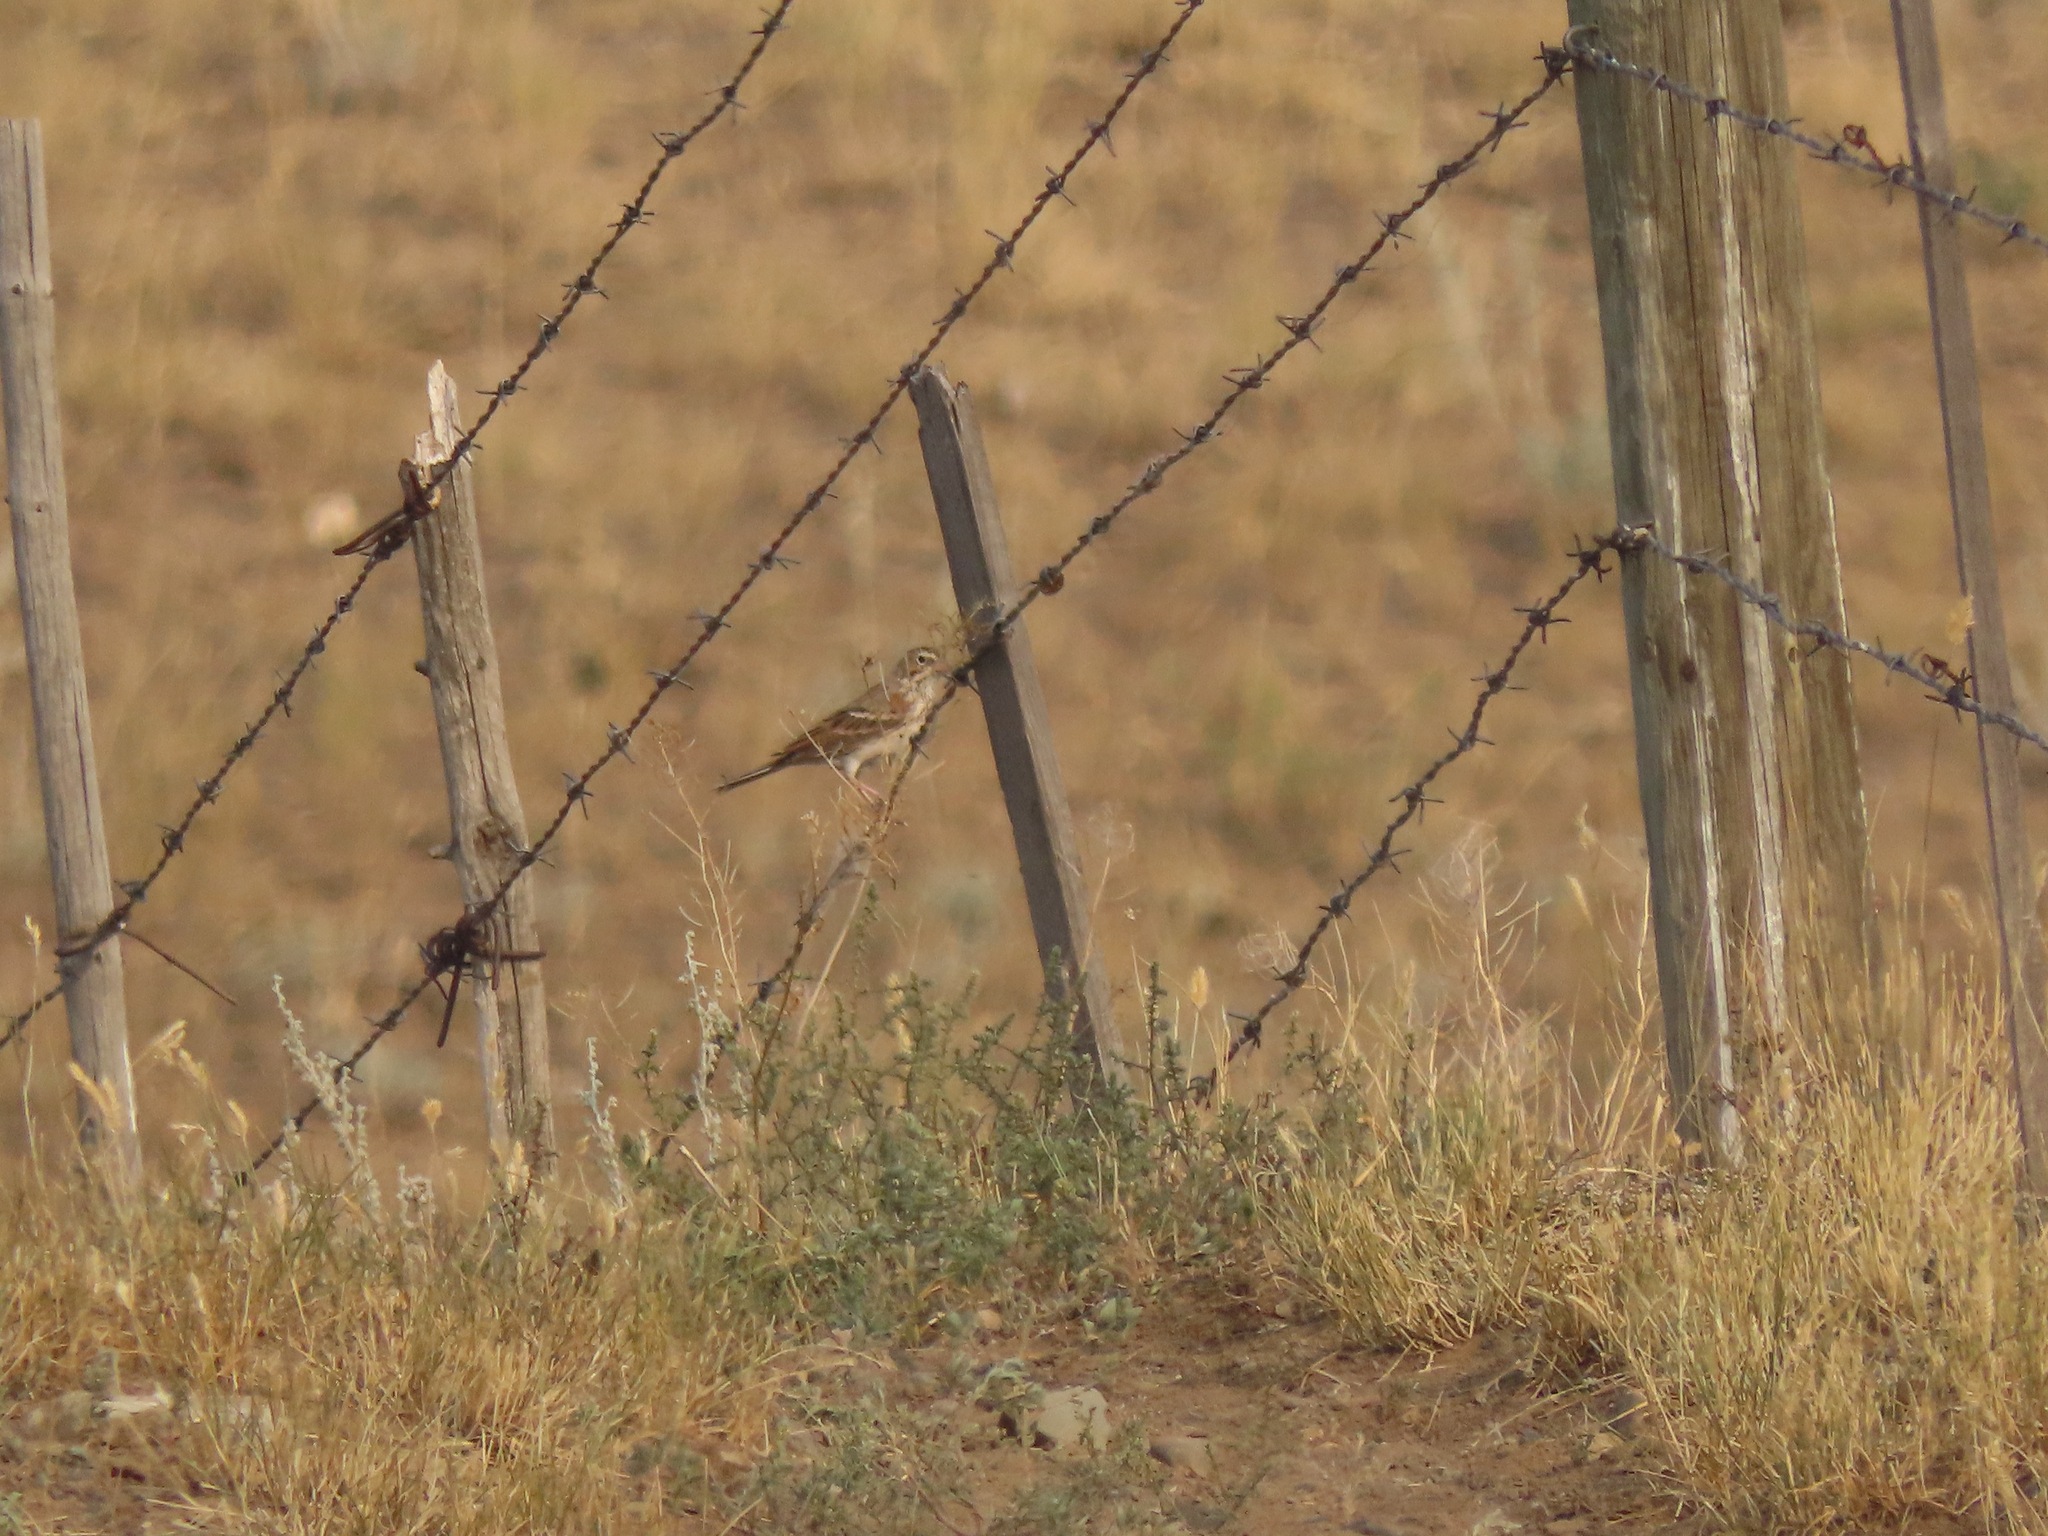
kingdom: Animalia
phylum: Chordata
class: Aves
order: Passeriformes
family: Passerellidae
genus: Pooecetes
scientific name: Pooecetes gramineus
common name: Vesper sparrow
